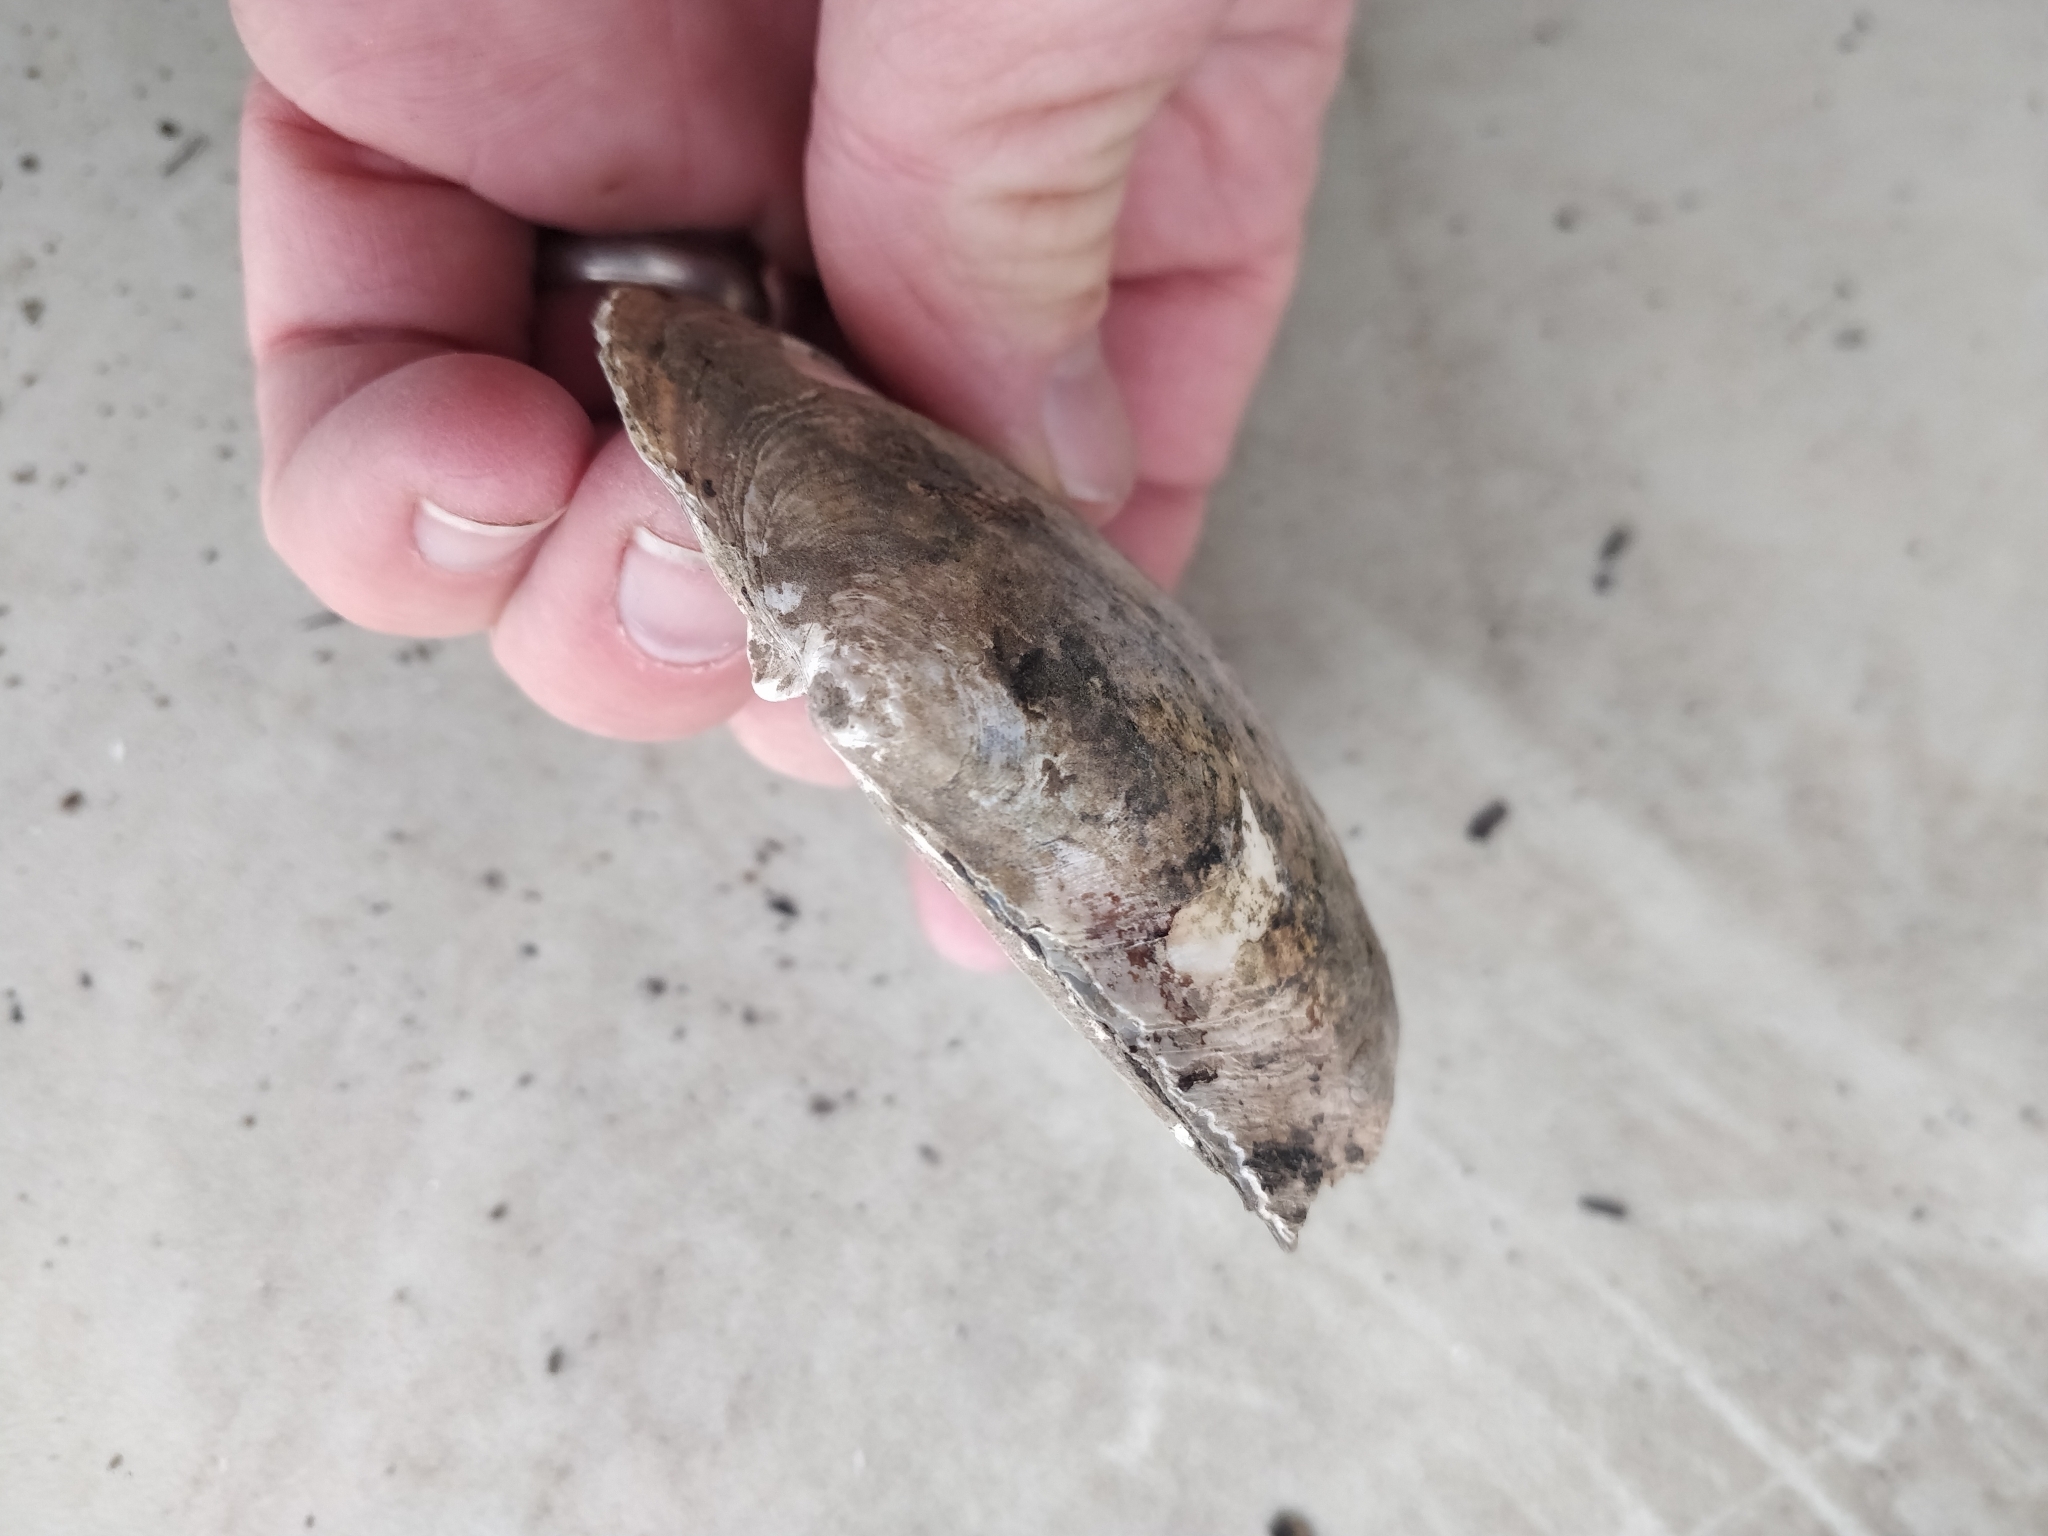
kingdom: Animalia
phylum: Mollusca
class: Bivalvia
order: Unionida
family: Unionidae
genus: Lasmigona
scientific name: Lasmigona complanata
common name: White heelsplitter
